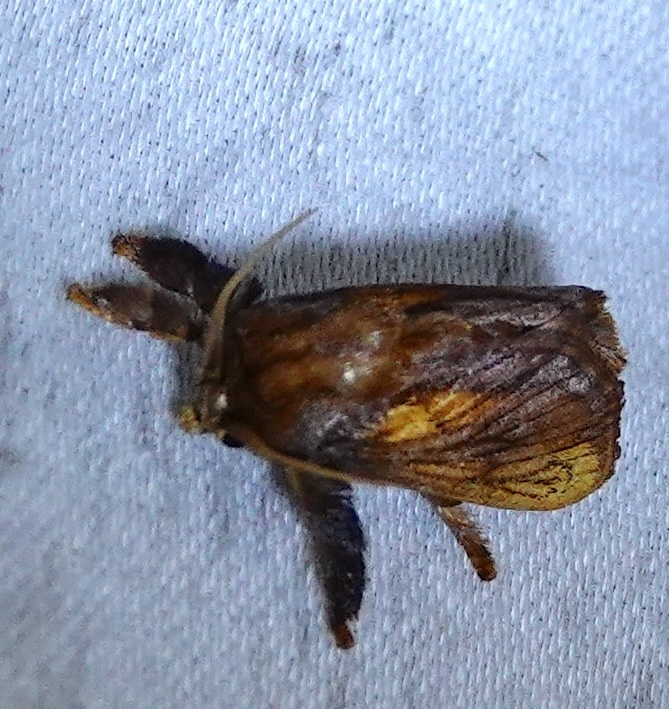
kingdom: Animalia
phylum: Arthropoda
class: Insecta
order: Lepidoptera
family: Limacodidae
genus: Talima
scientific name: Talima straminea
